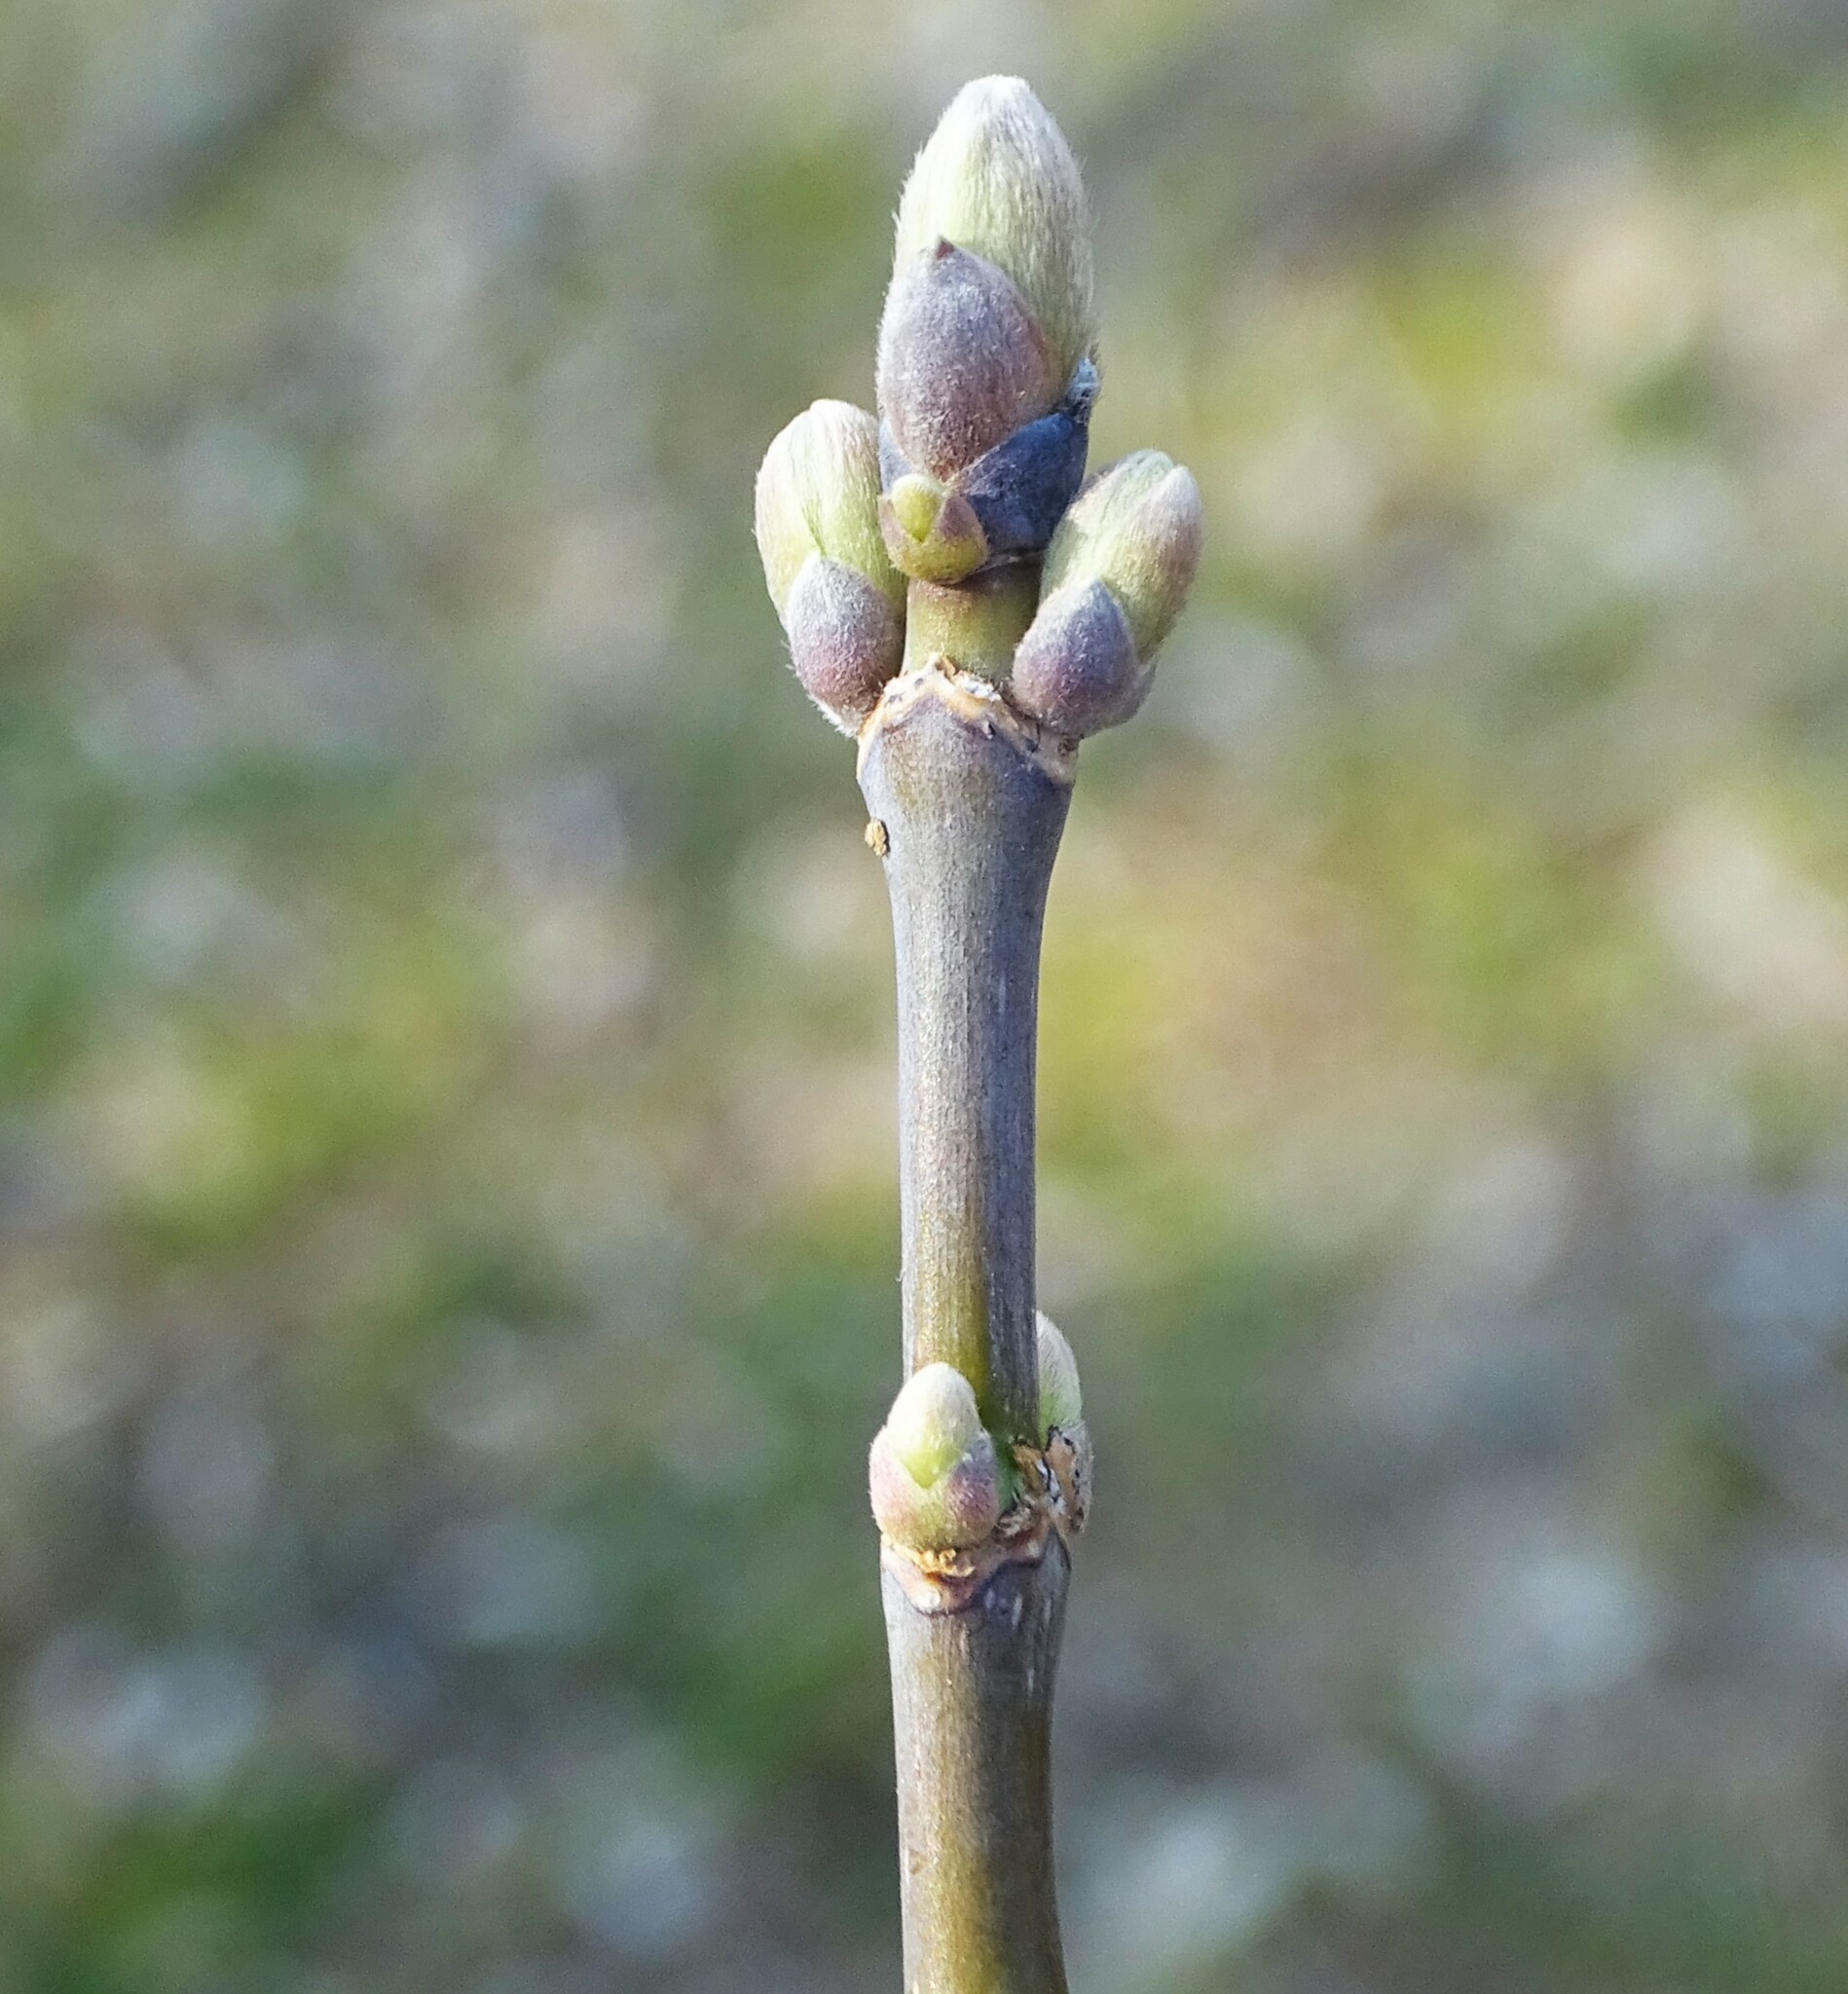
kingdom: Plantae
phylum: Tracheophyta
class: Magnoliopsida
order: Sapindales
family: Sapindaceae
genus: Acer
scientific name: Acer negundo
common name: Ashleaf maple
